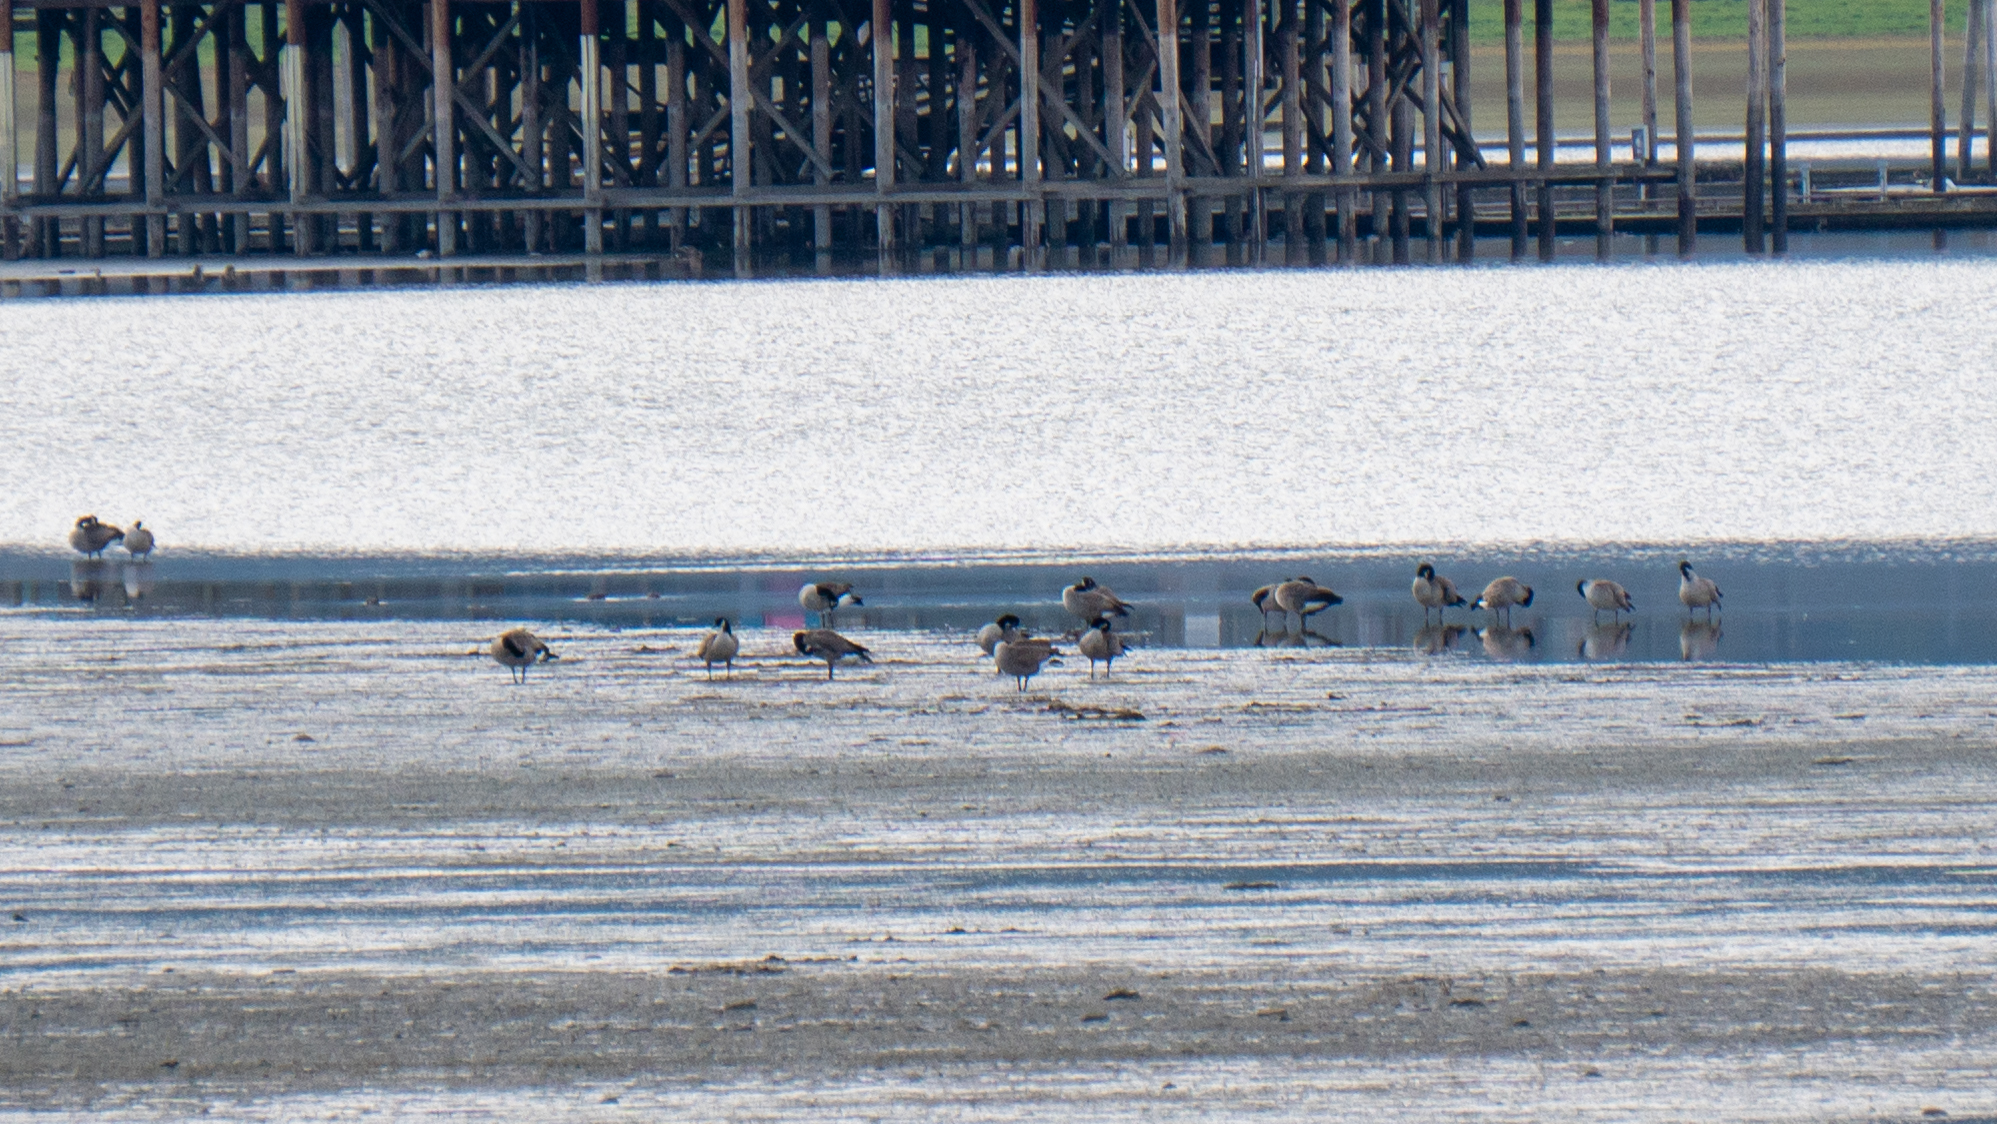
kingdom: Animalia
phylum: Chordata
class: Aves
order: Anseriformes
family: Anatidae
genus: Branta
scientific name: Branta canadensis
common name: Canada goose
